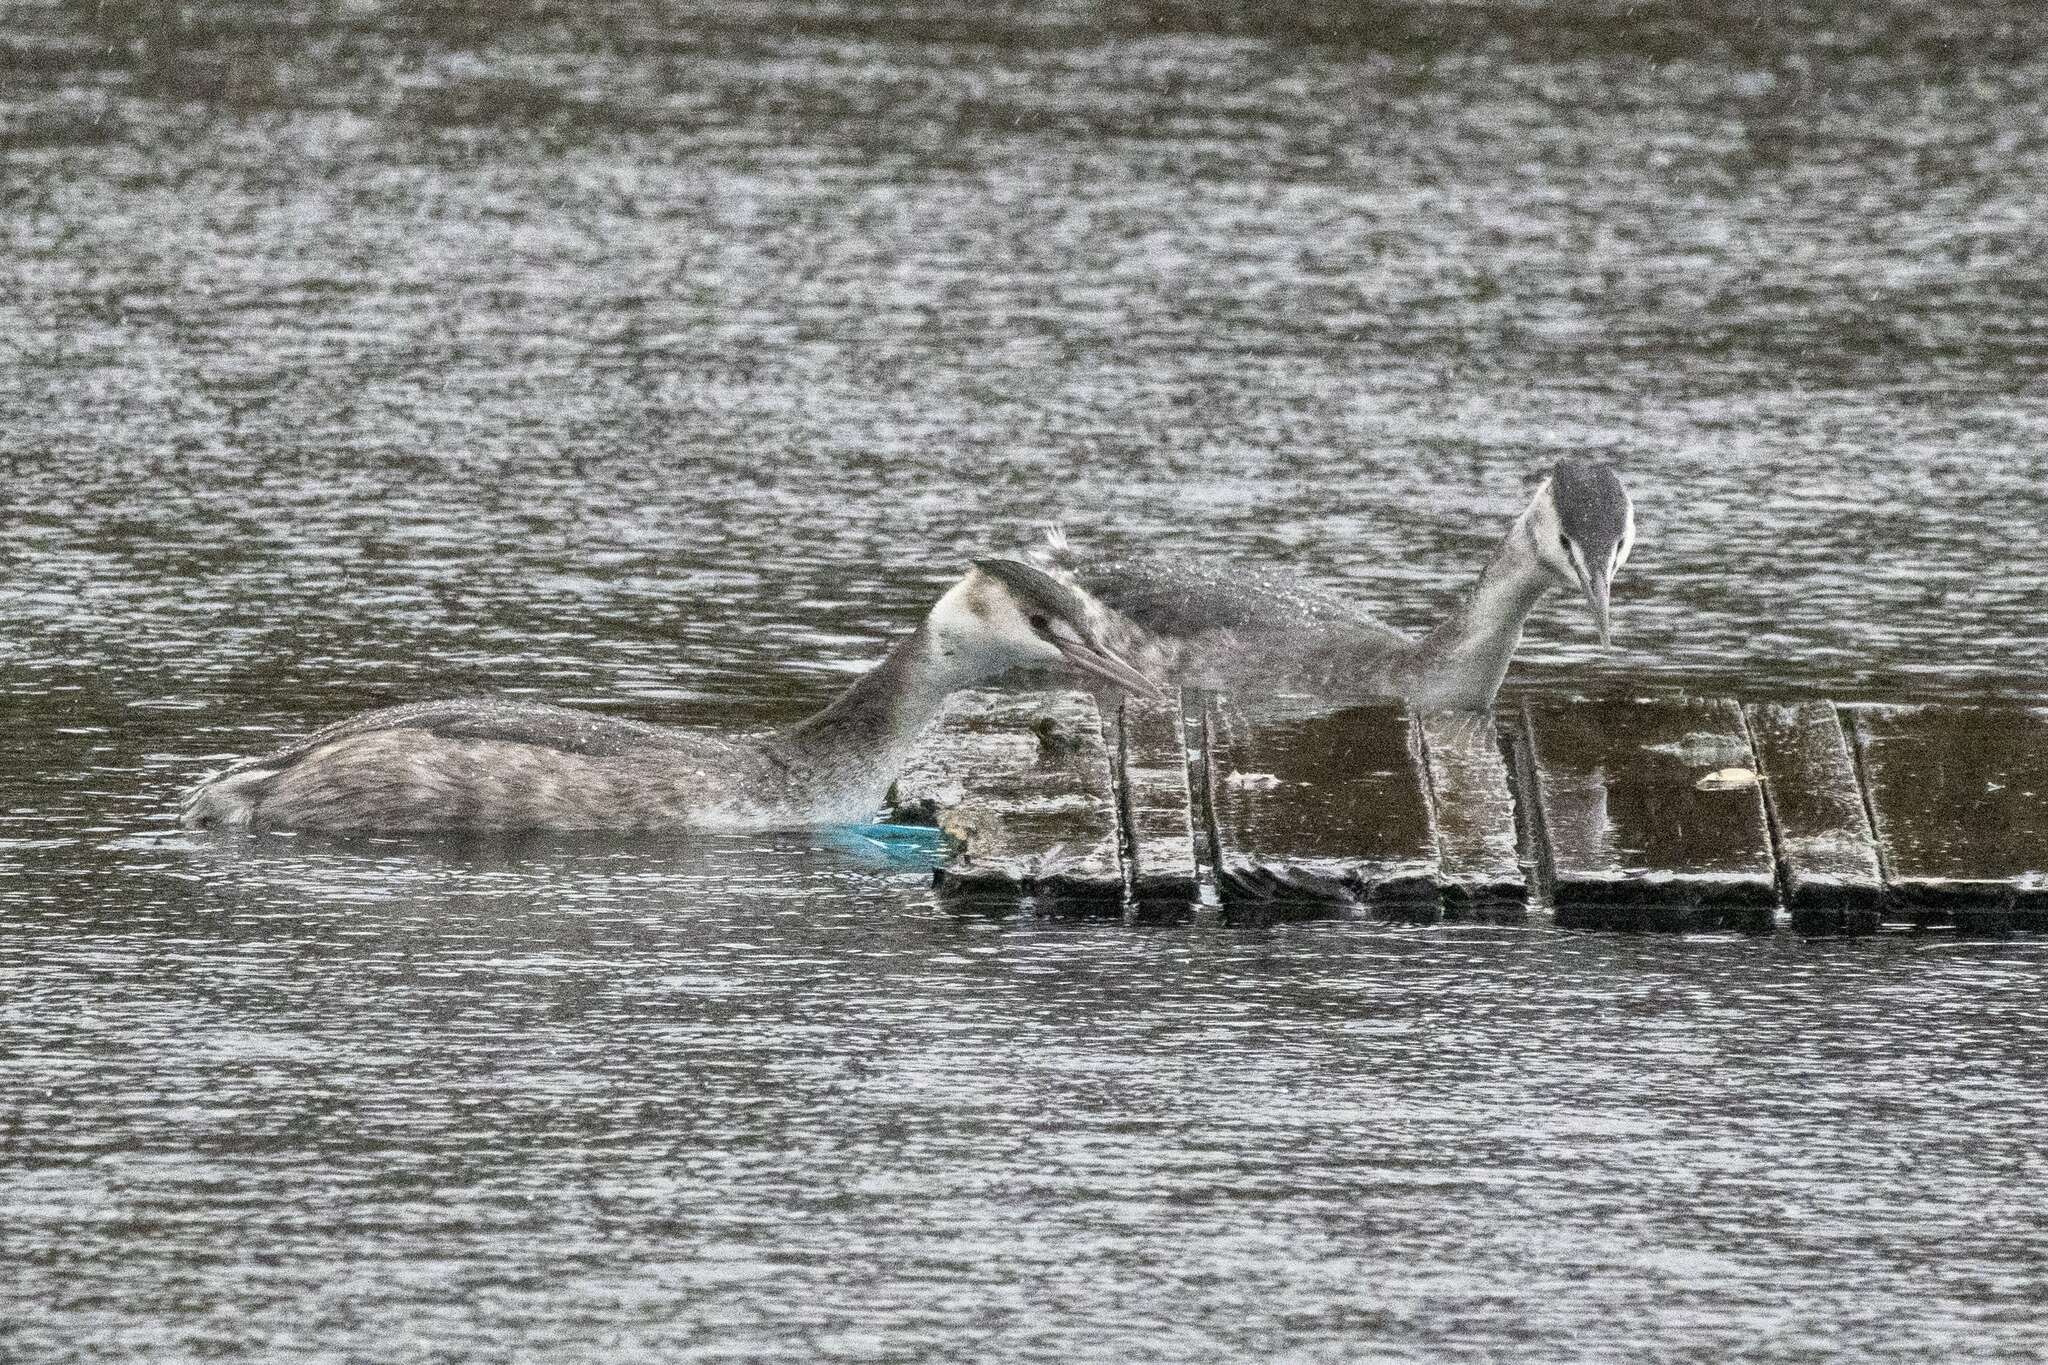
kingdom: Animalia
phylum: Chordata
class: Aves
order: Podicipediformes
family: Podicipedidae
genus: Podiceps
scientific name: Podiceps cristatus
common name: Great crested grebe
